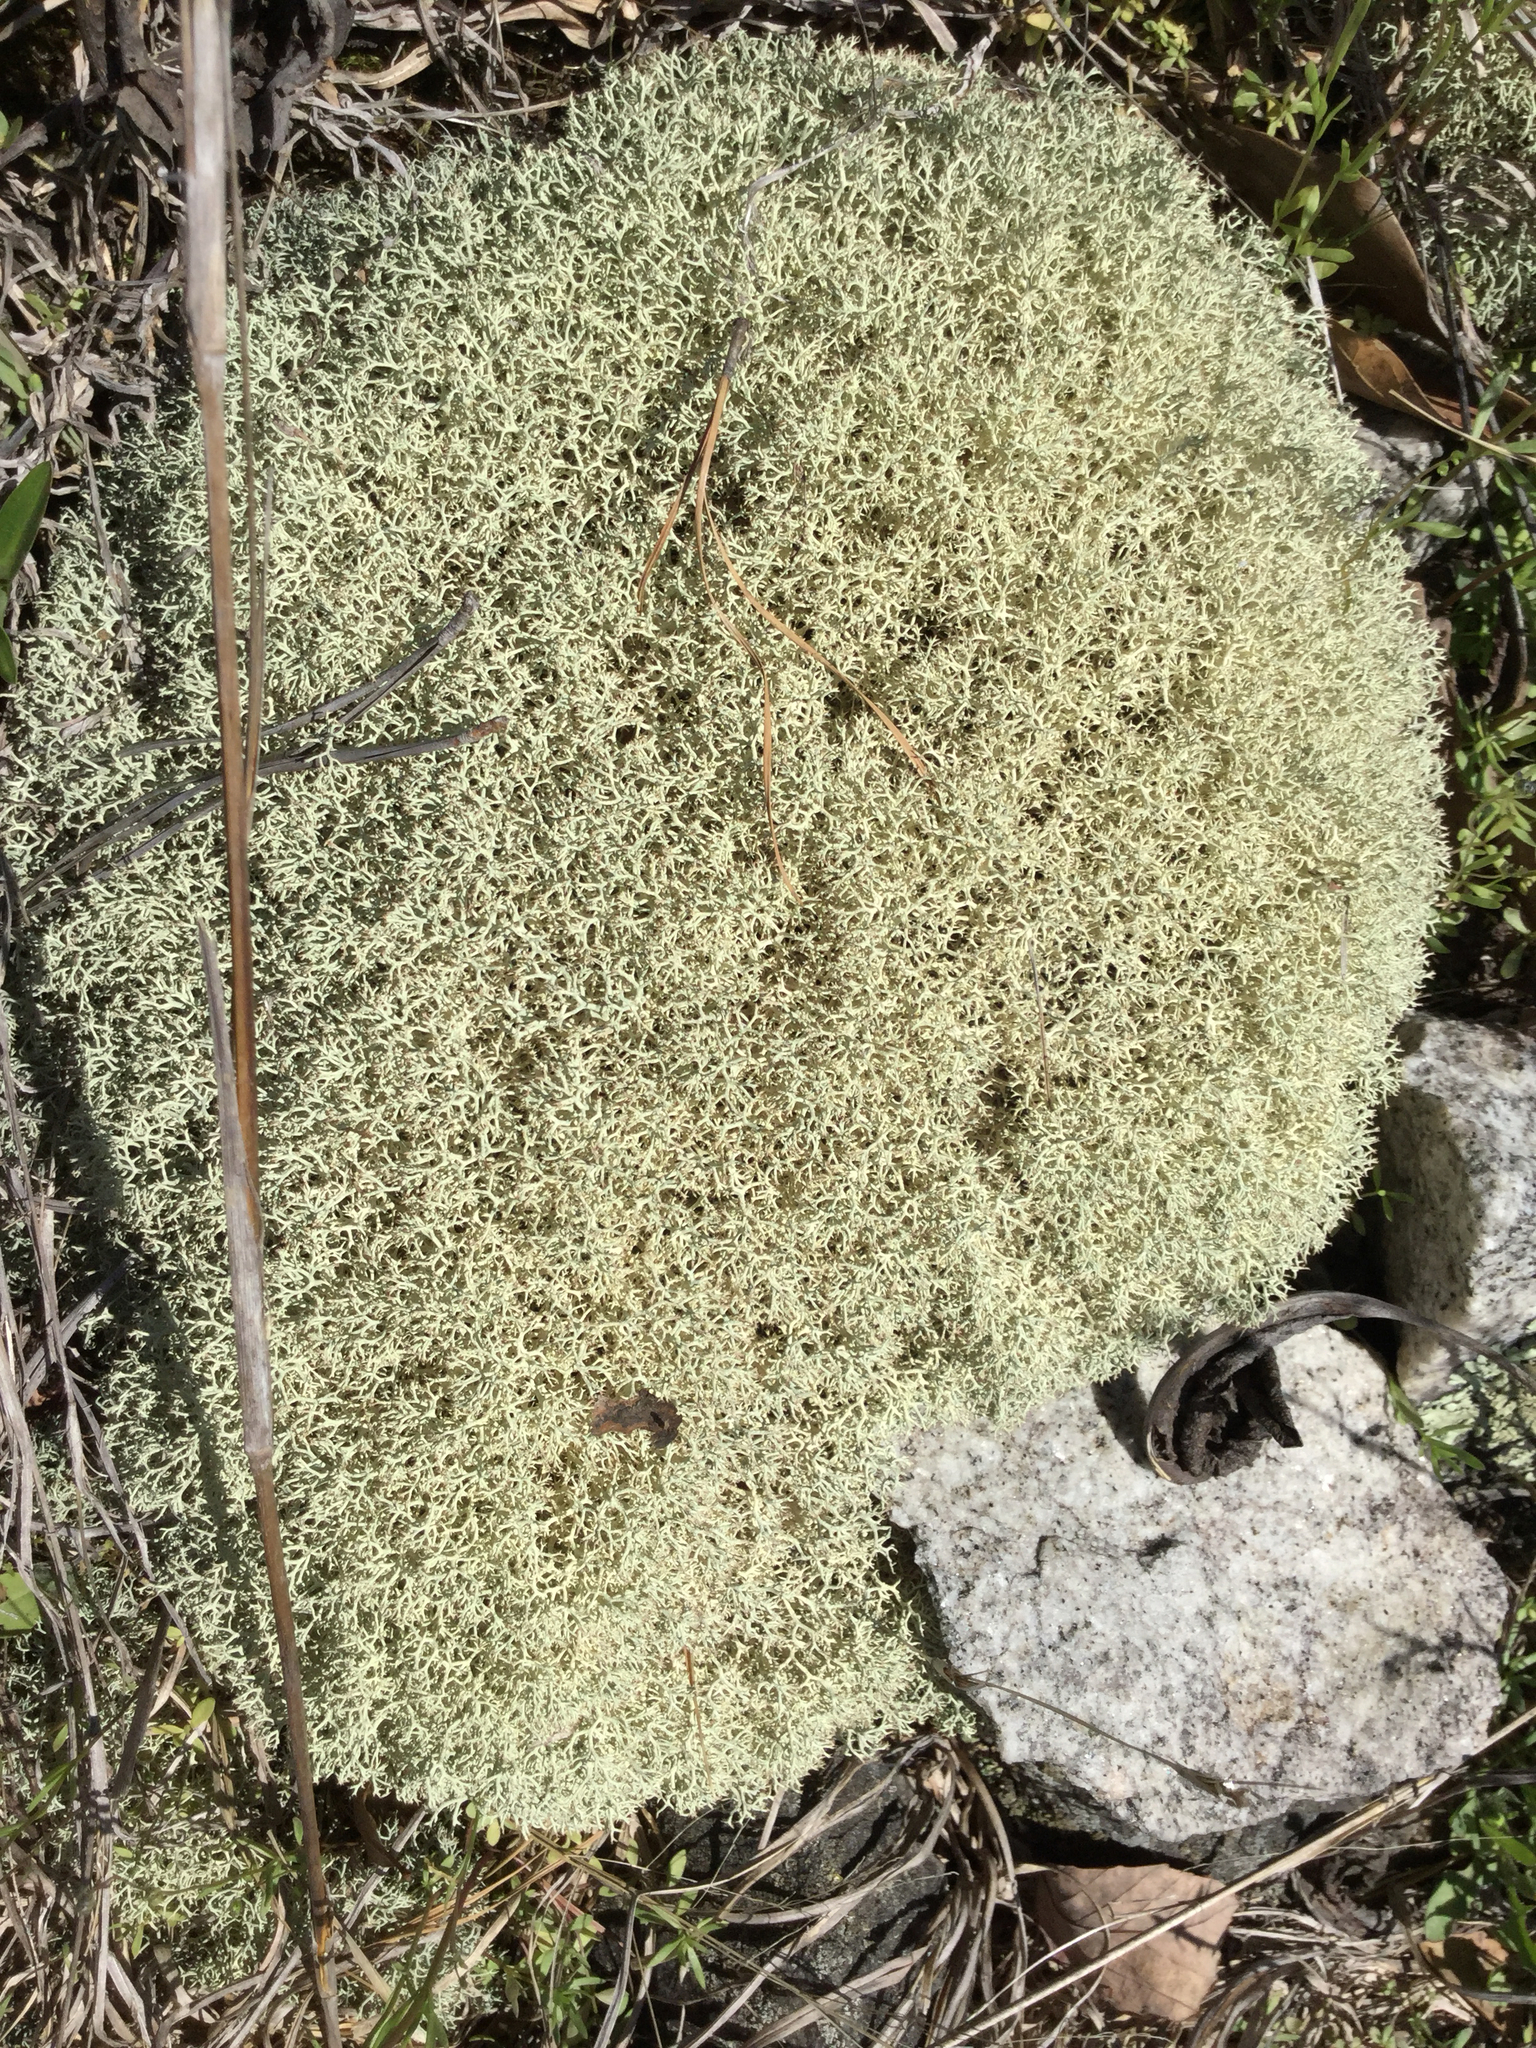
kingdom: Fungi
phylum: Ascomycota
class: Lecanoromycetes
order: Lecanorales
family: Cladoniaceae
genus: Cladonia
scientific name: Cladonia subtenuis
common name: Dixie reindeer lichen
